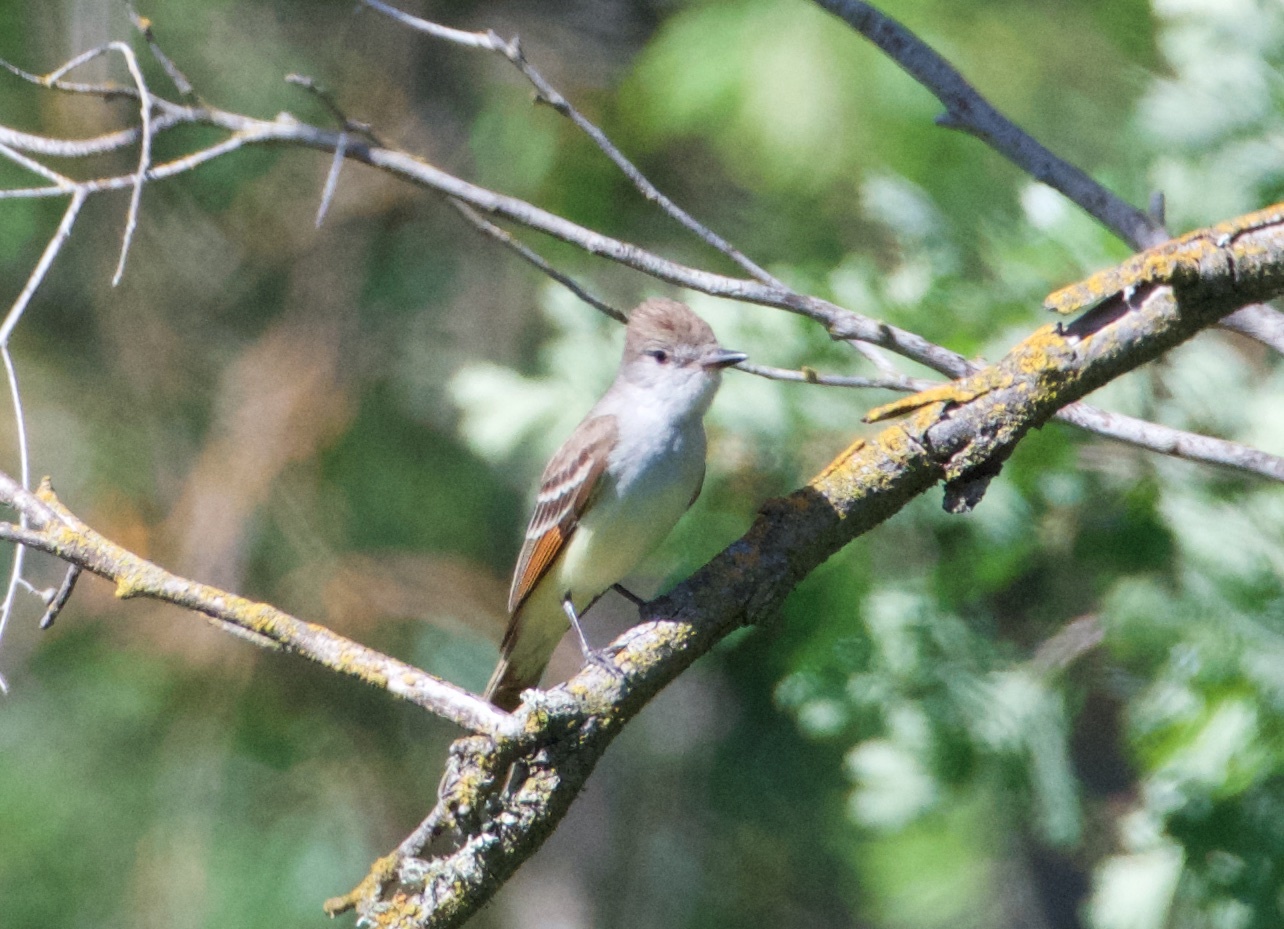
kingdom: Animalia
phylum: Chordata
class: Aves
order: Passeriformes
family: Tyrannidae
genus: Myiarchus
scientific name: Myiarchus cinerascens
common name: Ash-throated flycatcher
